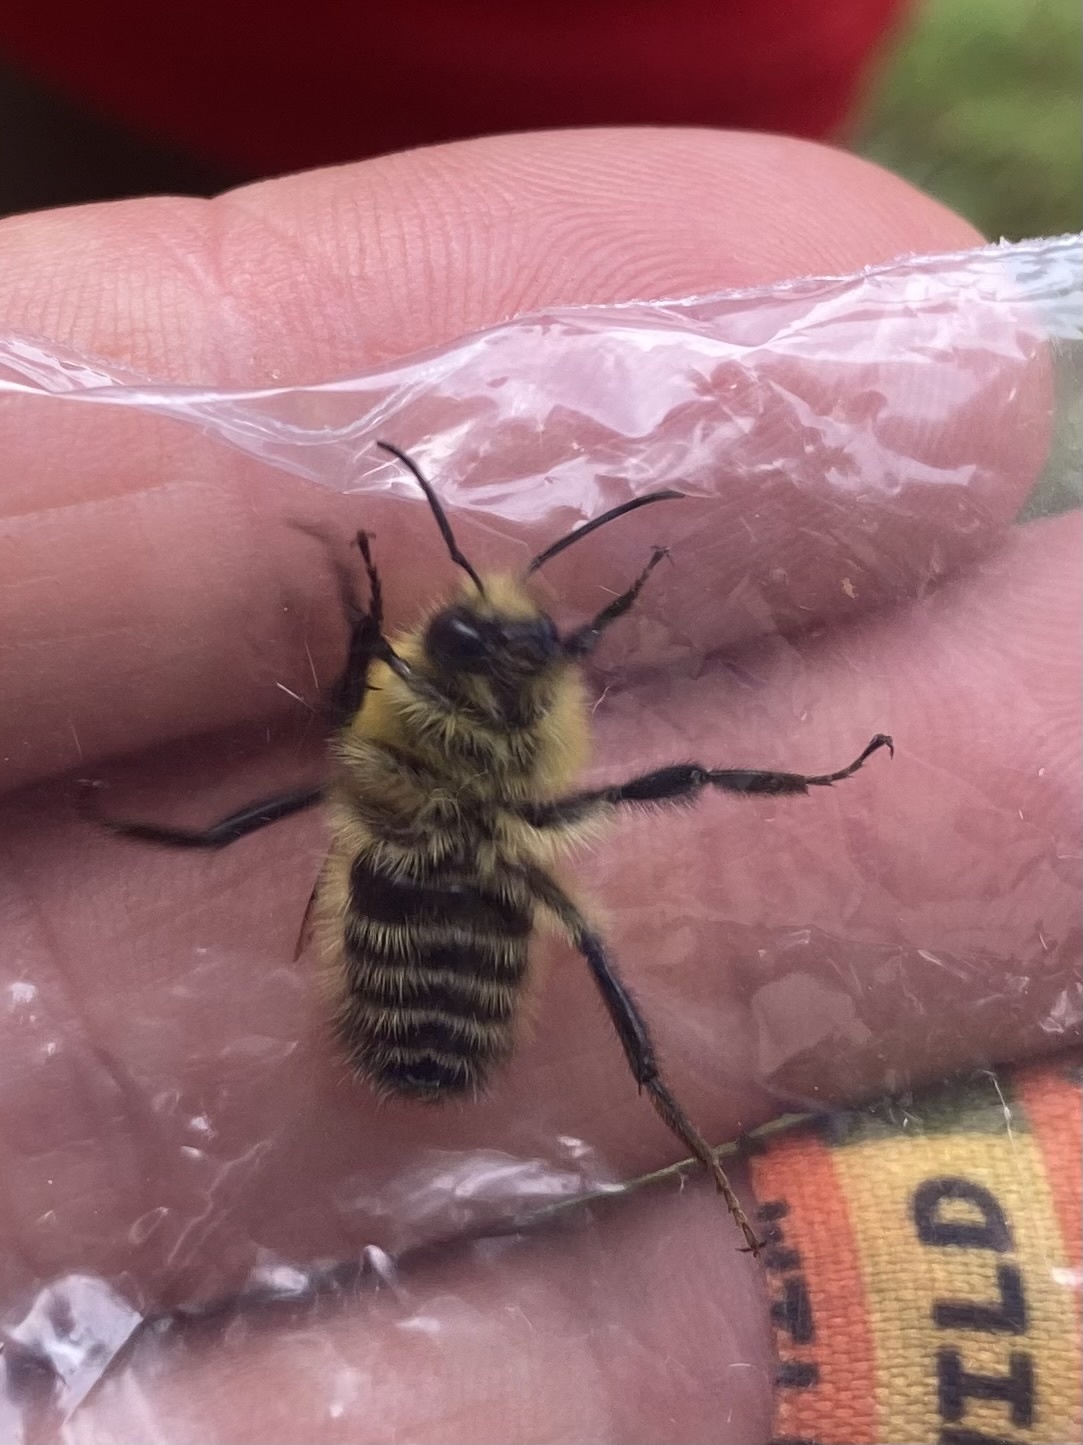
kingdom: Animalia
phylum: Arthropoda
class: Insecta
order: Hymenoptera
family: Apidae
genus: Bombus
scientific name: Bombus perplexus
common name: Confusing bumble bee
